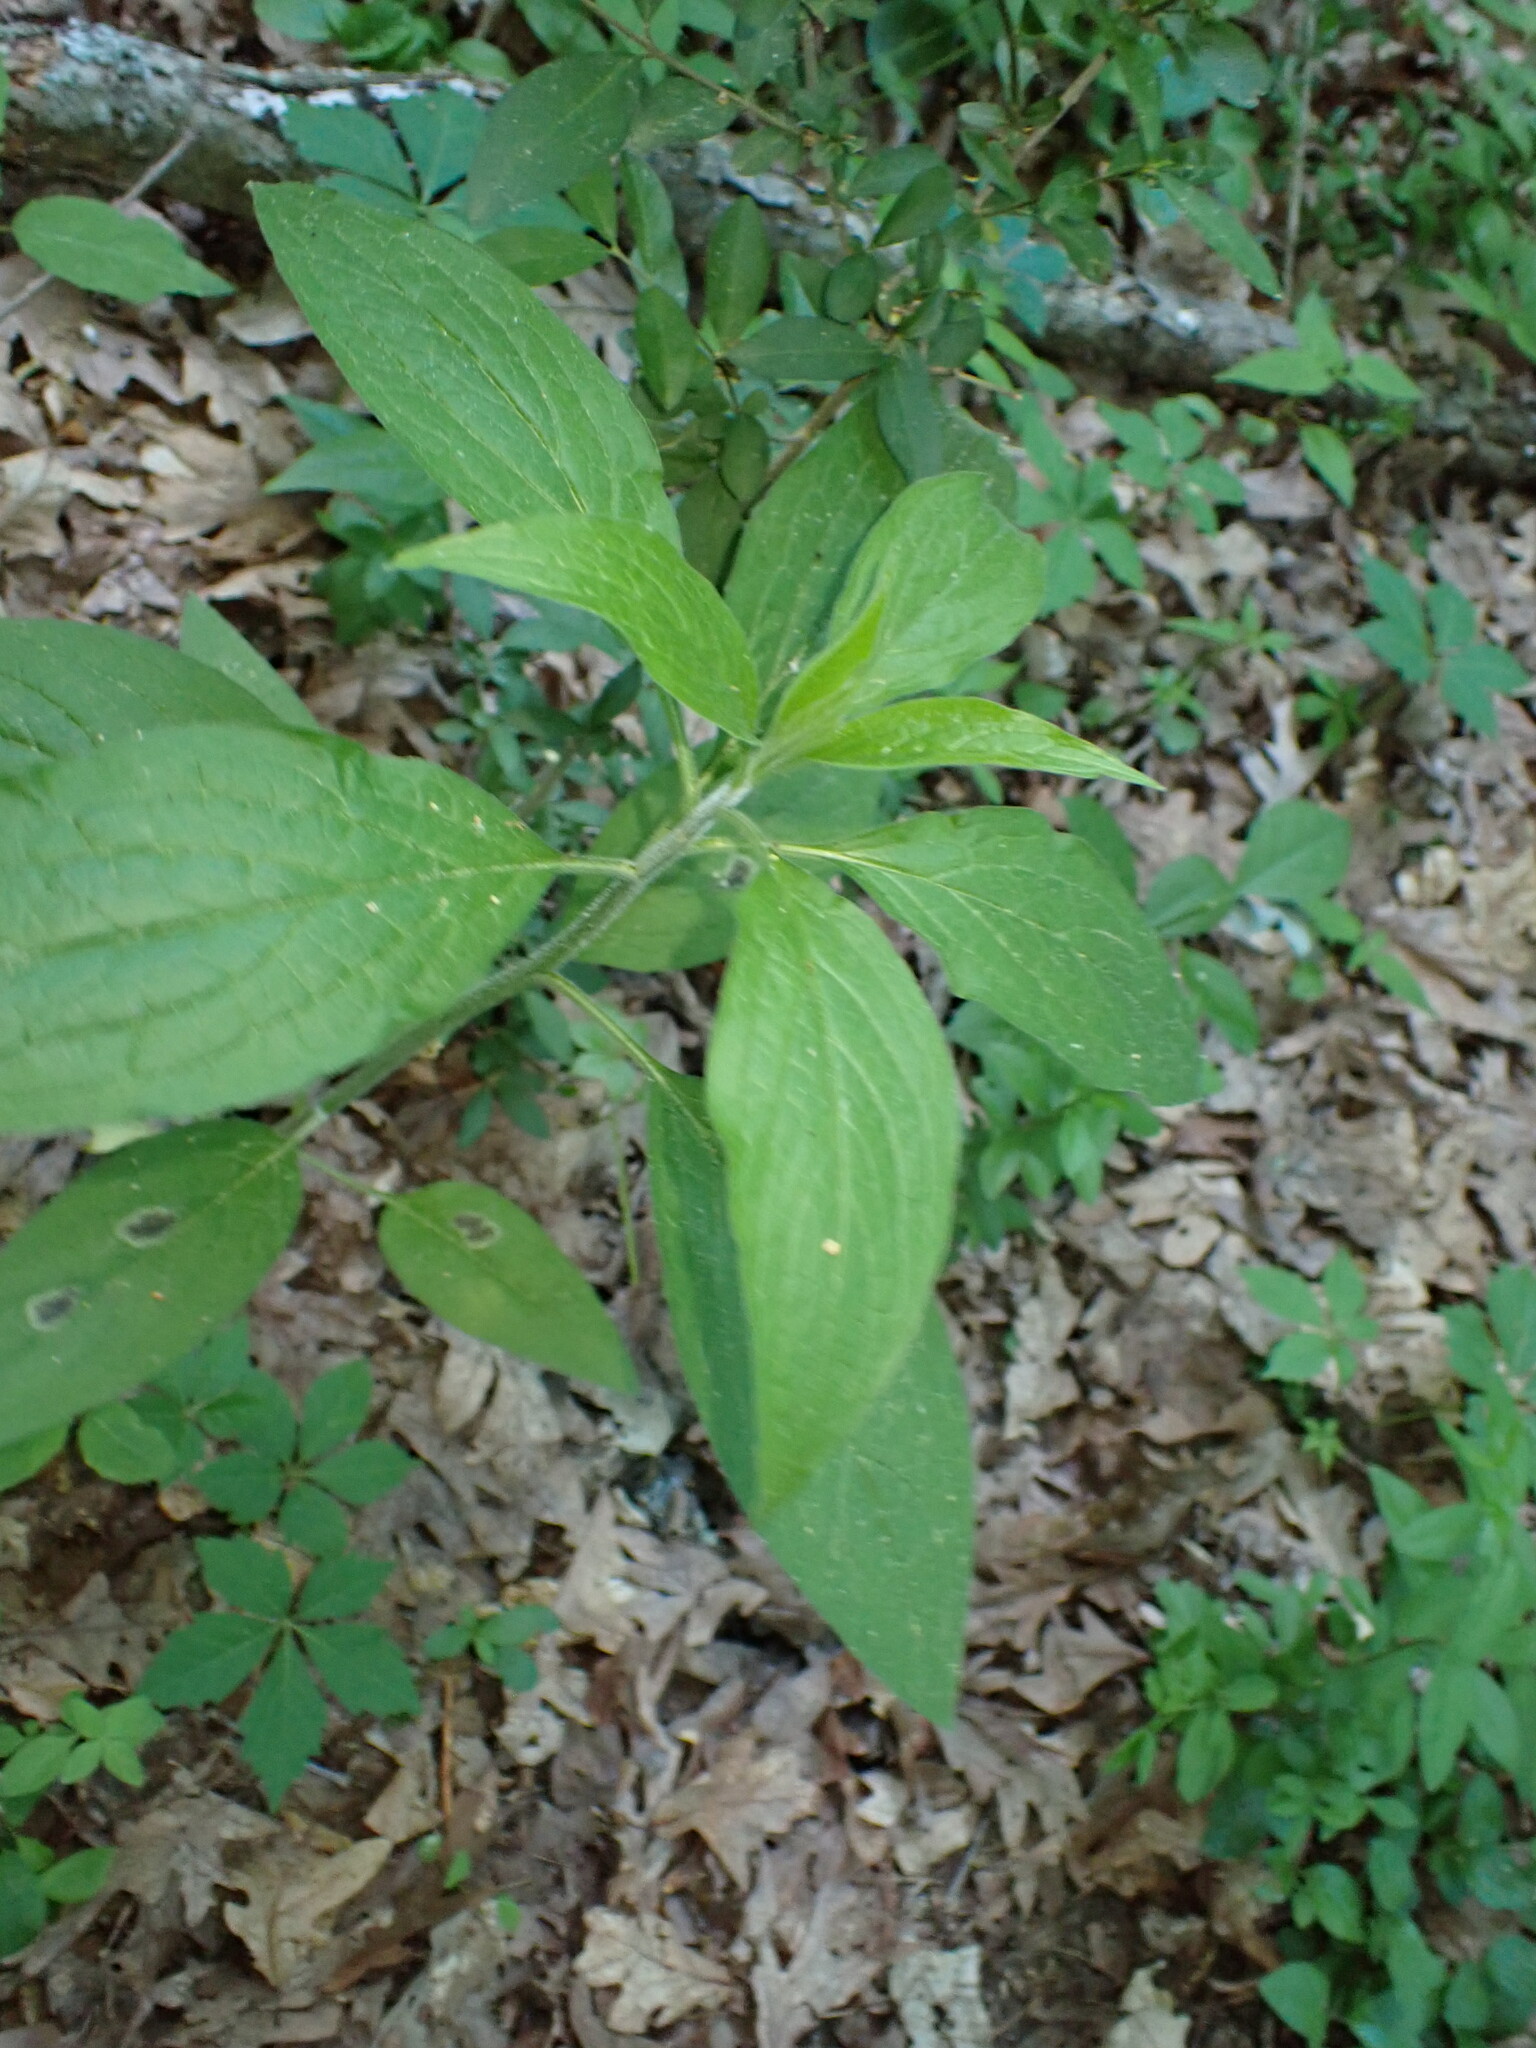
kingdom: Plantae
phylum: Tracheophyta
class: Magnoliopsida
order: Boraginales
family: Boraginaceae
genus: Hackelia
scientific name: Hackelia virginiana
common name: Beggar's-lice
